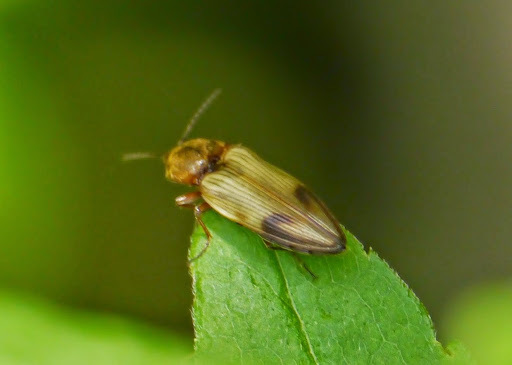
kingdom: Animalia
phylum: Arthropoda
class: Insecta
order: Coleoptera
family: Elateridae
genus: Stropenron
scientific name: Stropenron hamata
